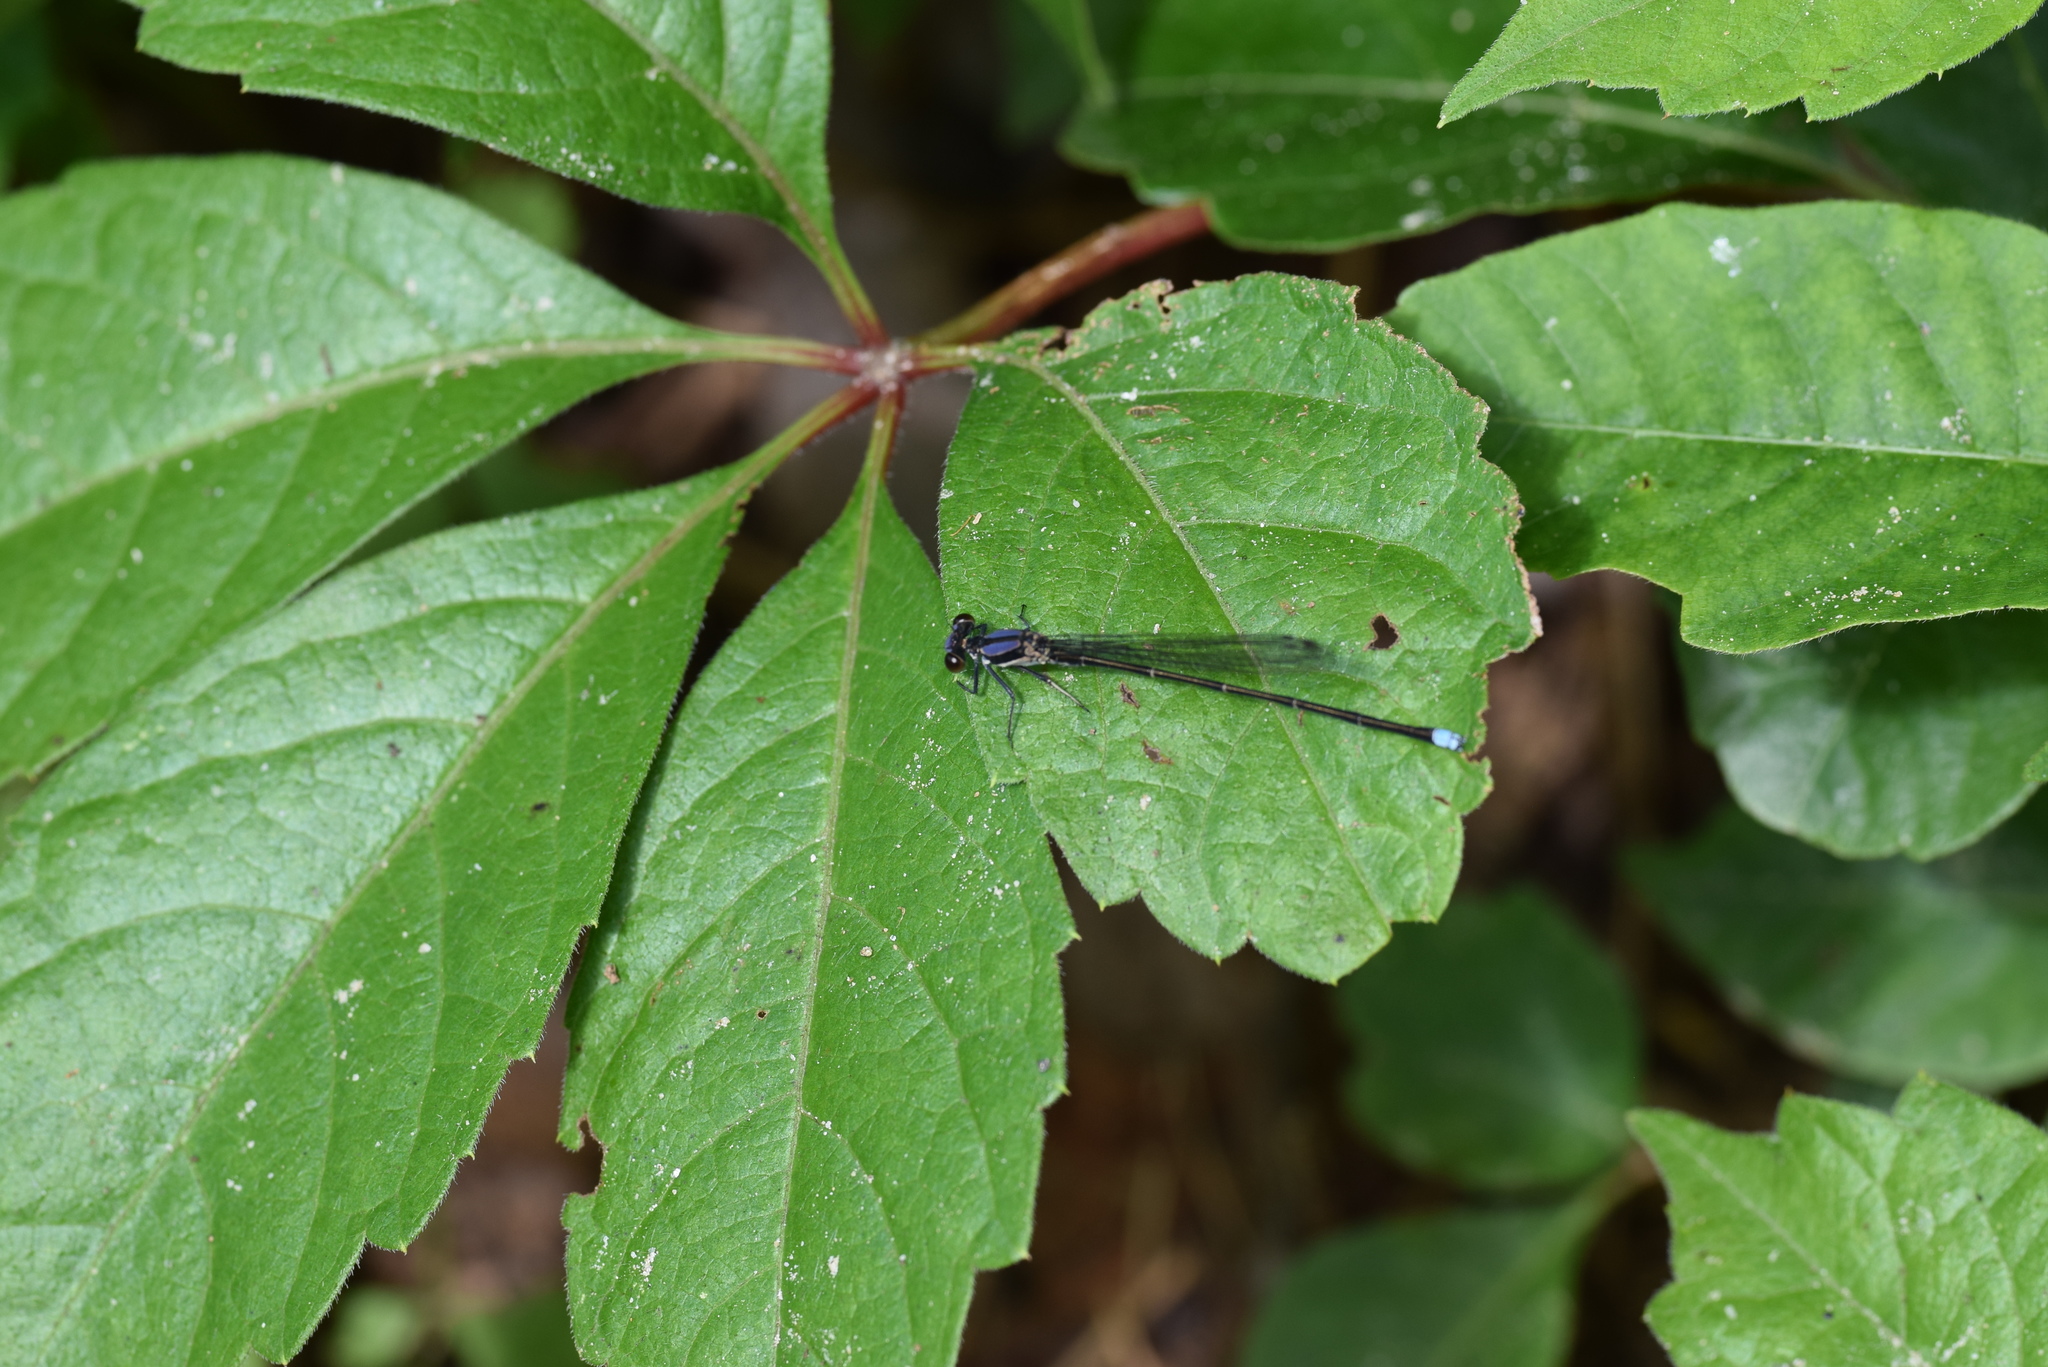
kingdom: Animalia
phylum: Arthropoda
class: Insecta
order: Odonata
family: Coenagrionidae
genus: Argia
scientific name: Argia tibialis
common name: Blue-tipped dancer
